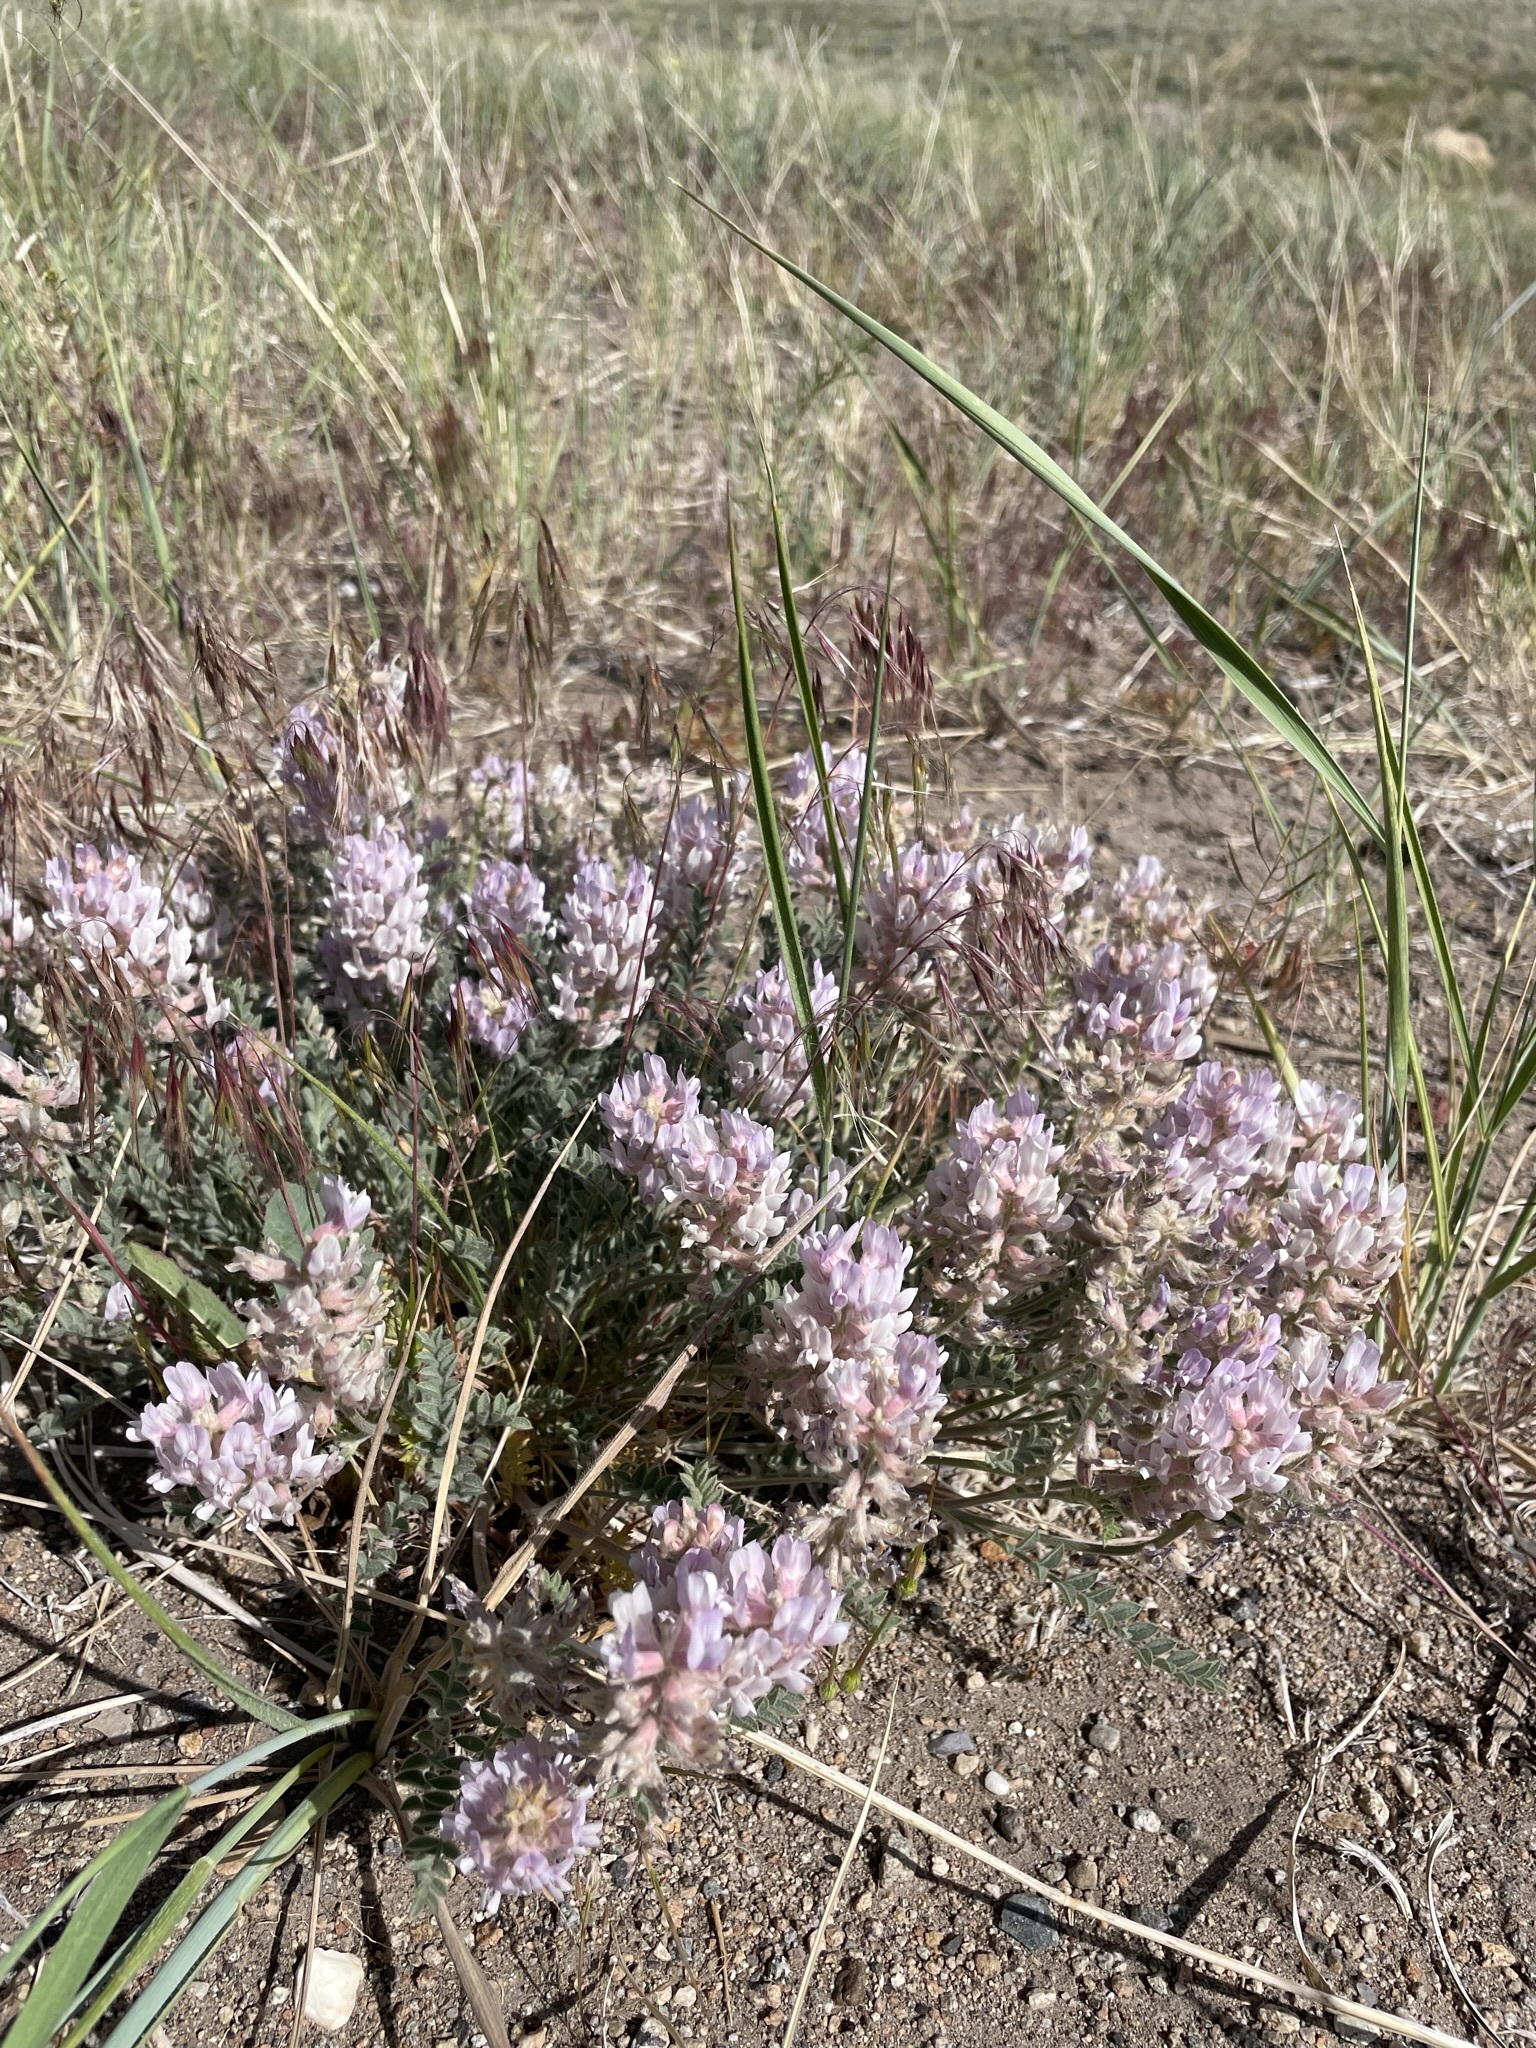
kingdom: Plantae
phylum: Tracheophyta
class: Magnoliopsida
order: Fabales
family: Fabaceae
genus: Astragalus
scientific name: Astragalus andersonii
